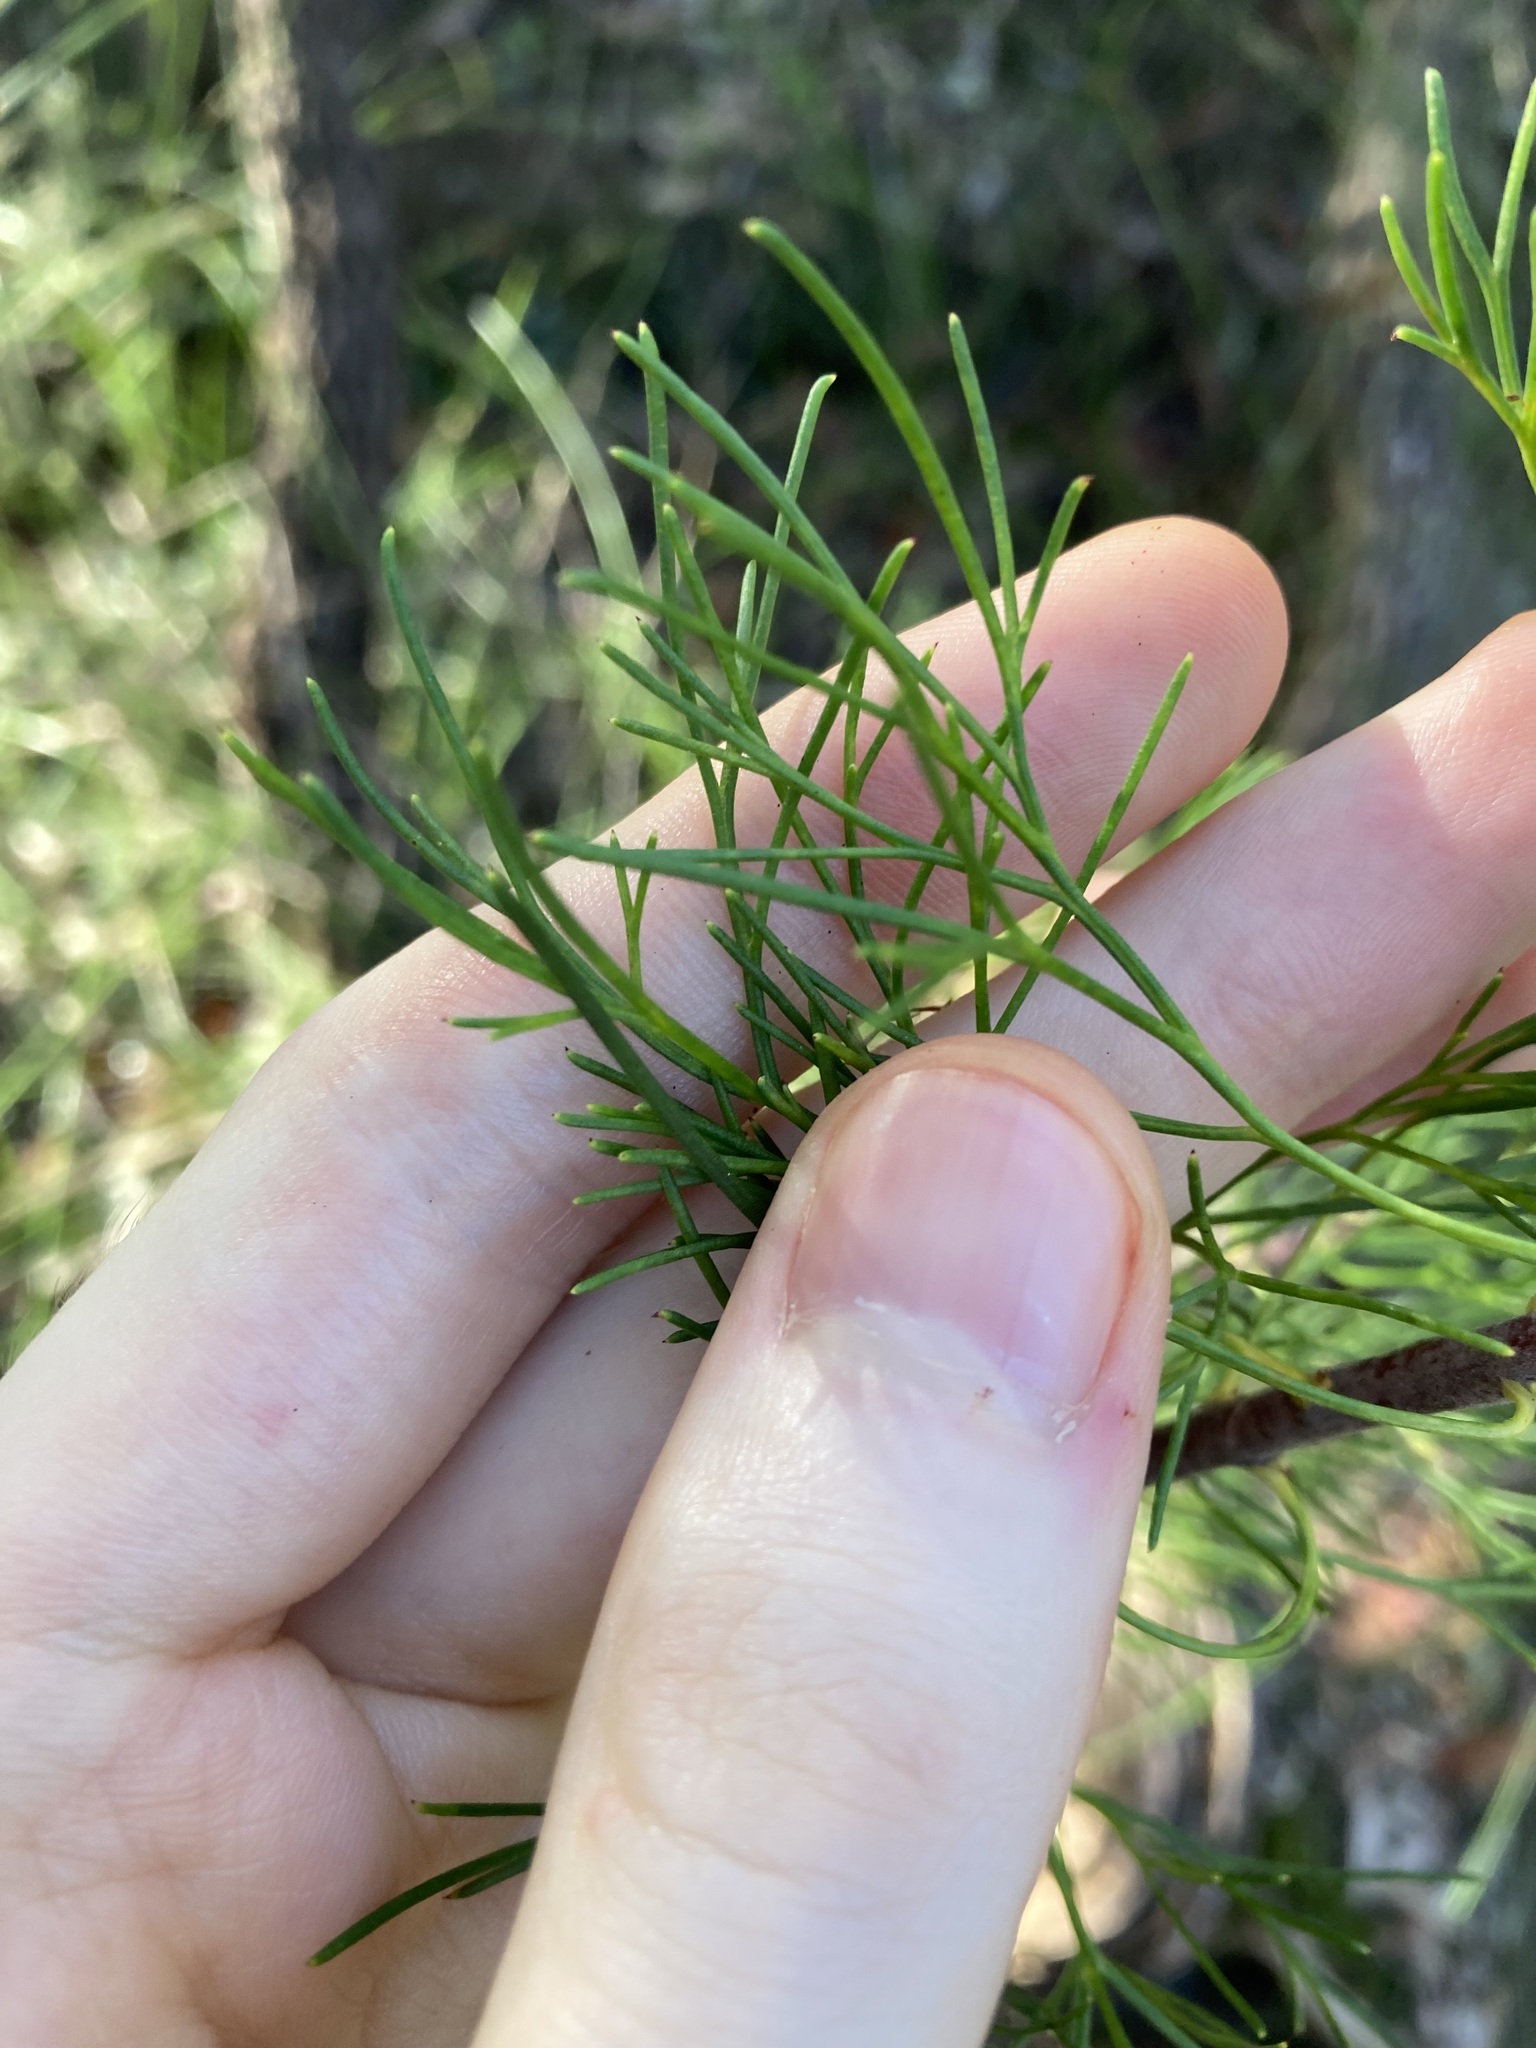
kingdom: Plantae
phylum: Tracheophyta
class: Magnoliopsida
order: Proteales
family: Proteaceae
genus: Petrophile
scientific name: Petrophile pulchella
